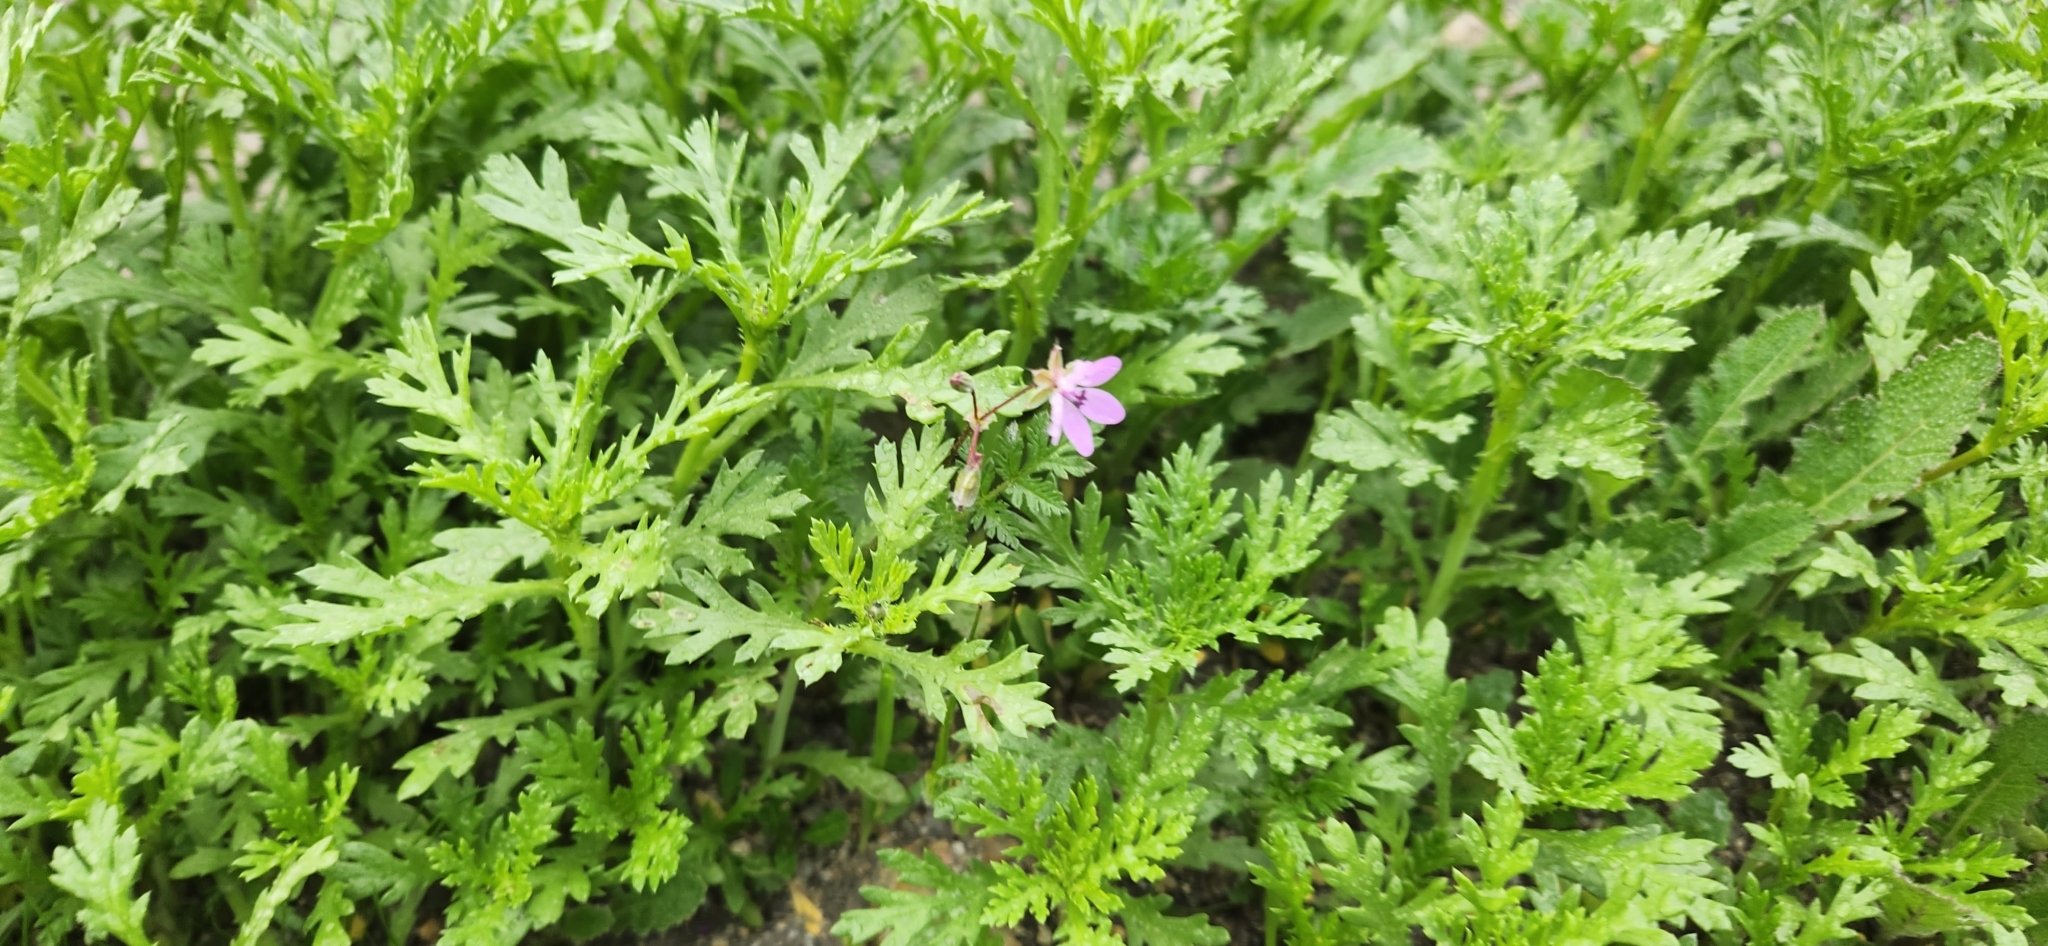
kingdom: Plantae
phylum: Tracheophyta
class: Magnoliopsida
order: Geraniales
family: Geraniaceae
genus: Erodium
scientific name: Erodium cicutarium
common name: Common stork's-bill
